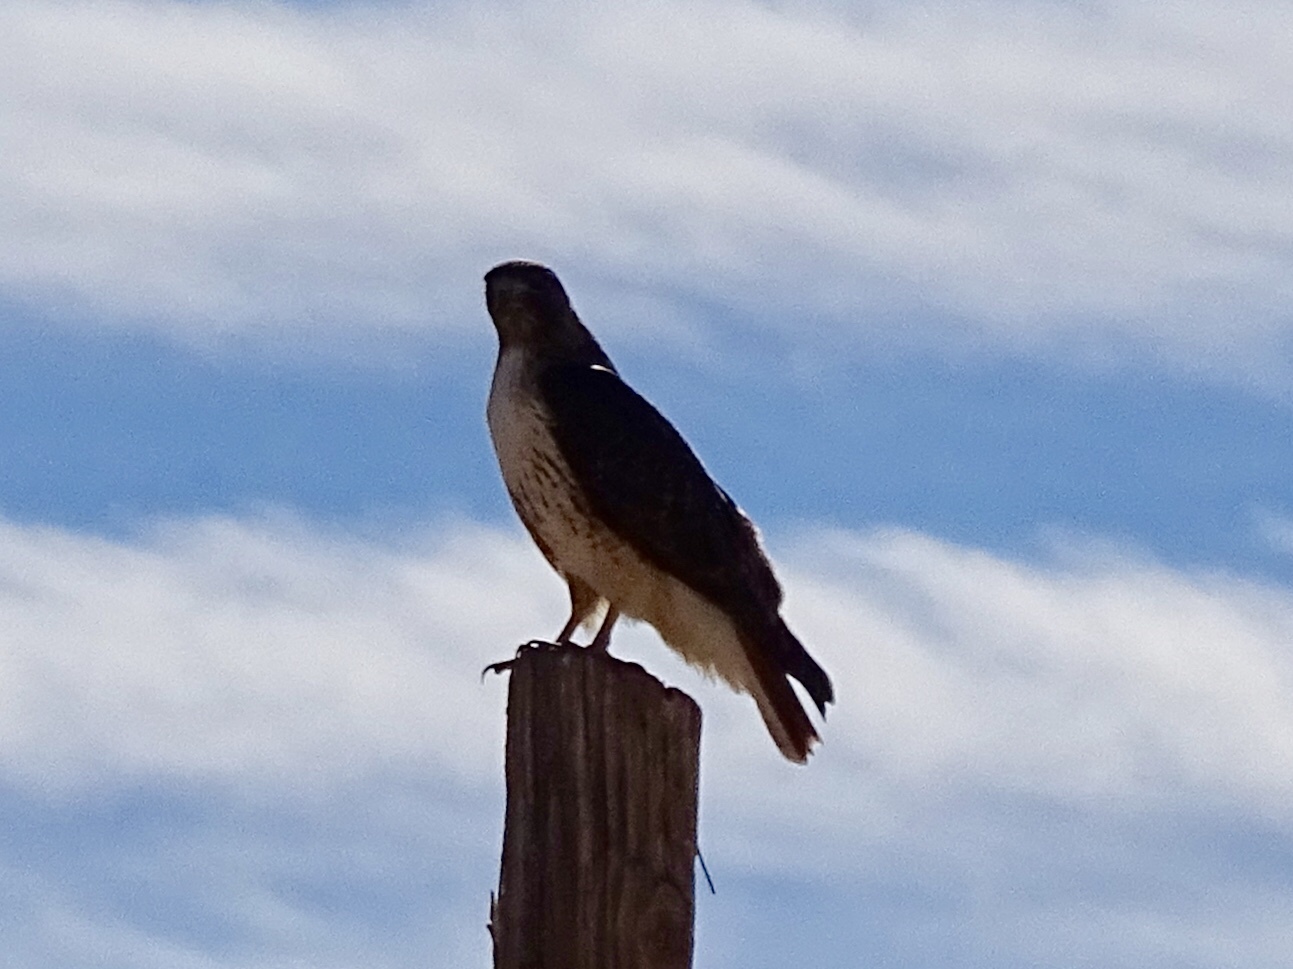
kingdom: Animalia
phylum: Chordata
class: Aves
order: Accipitriformes
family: Accipitridae
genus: Buteo
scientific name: Buteo jamaicensis
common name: Red-tailed hawk
